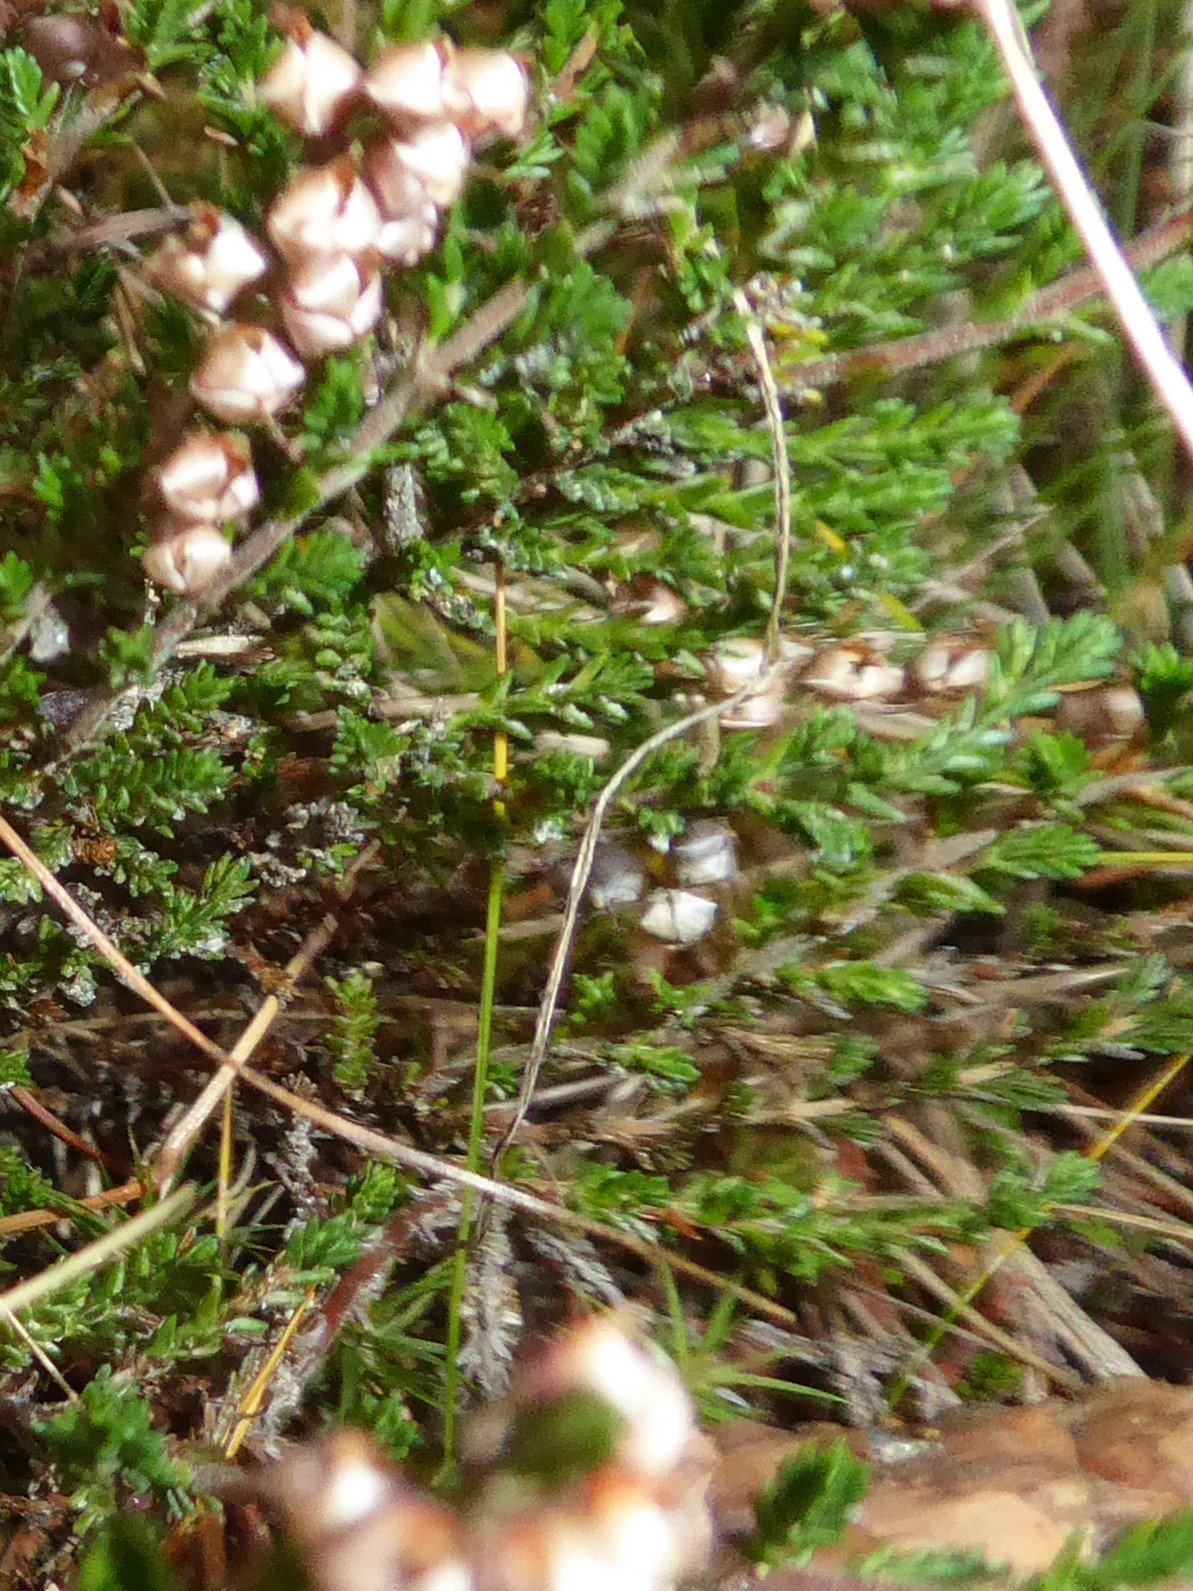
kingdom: Plantae
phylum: Tracheophyta
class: Magnoliopsida
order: Ericales
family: Ericaceae
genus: Calluna
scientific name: Calluna vulgaris
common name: Heather
